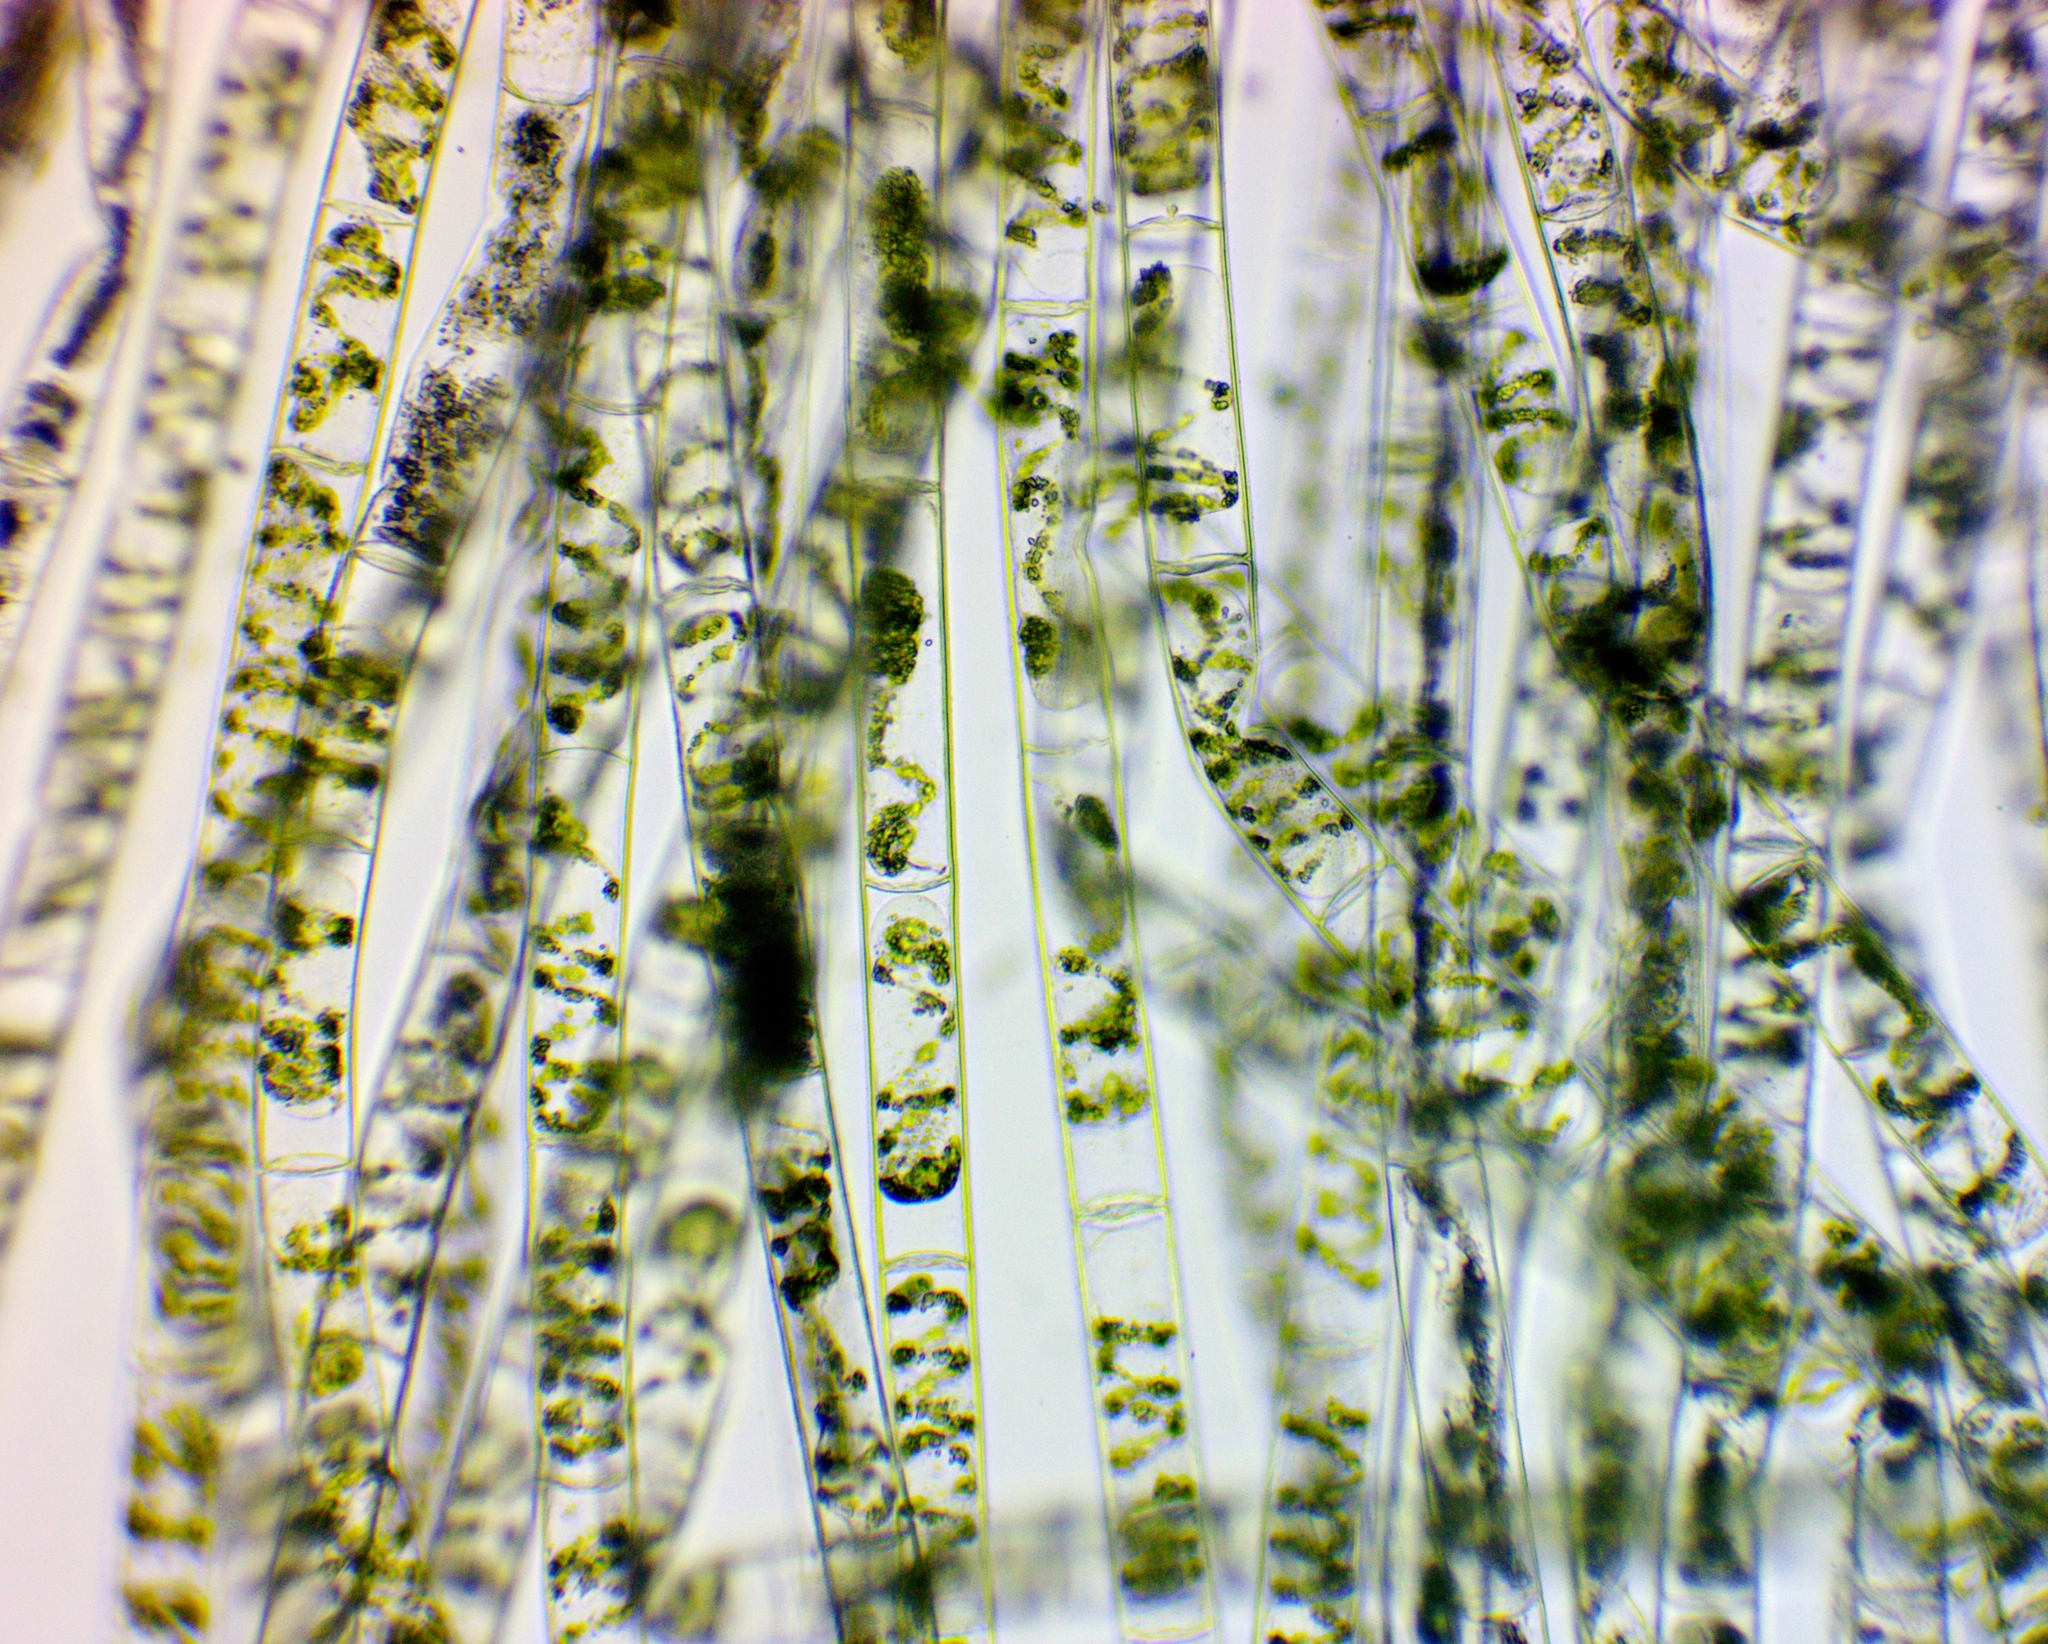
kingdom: Plantae
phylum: Charophyta
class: Zygnematophyceae
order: Zygnematales
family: Zygnemataceae
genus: Spirogyra
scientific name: Spirogyra
